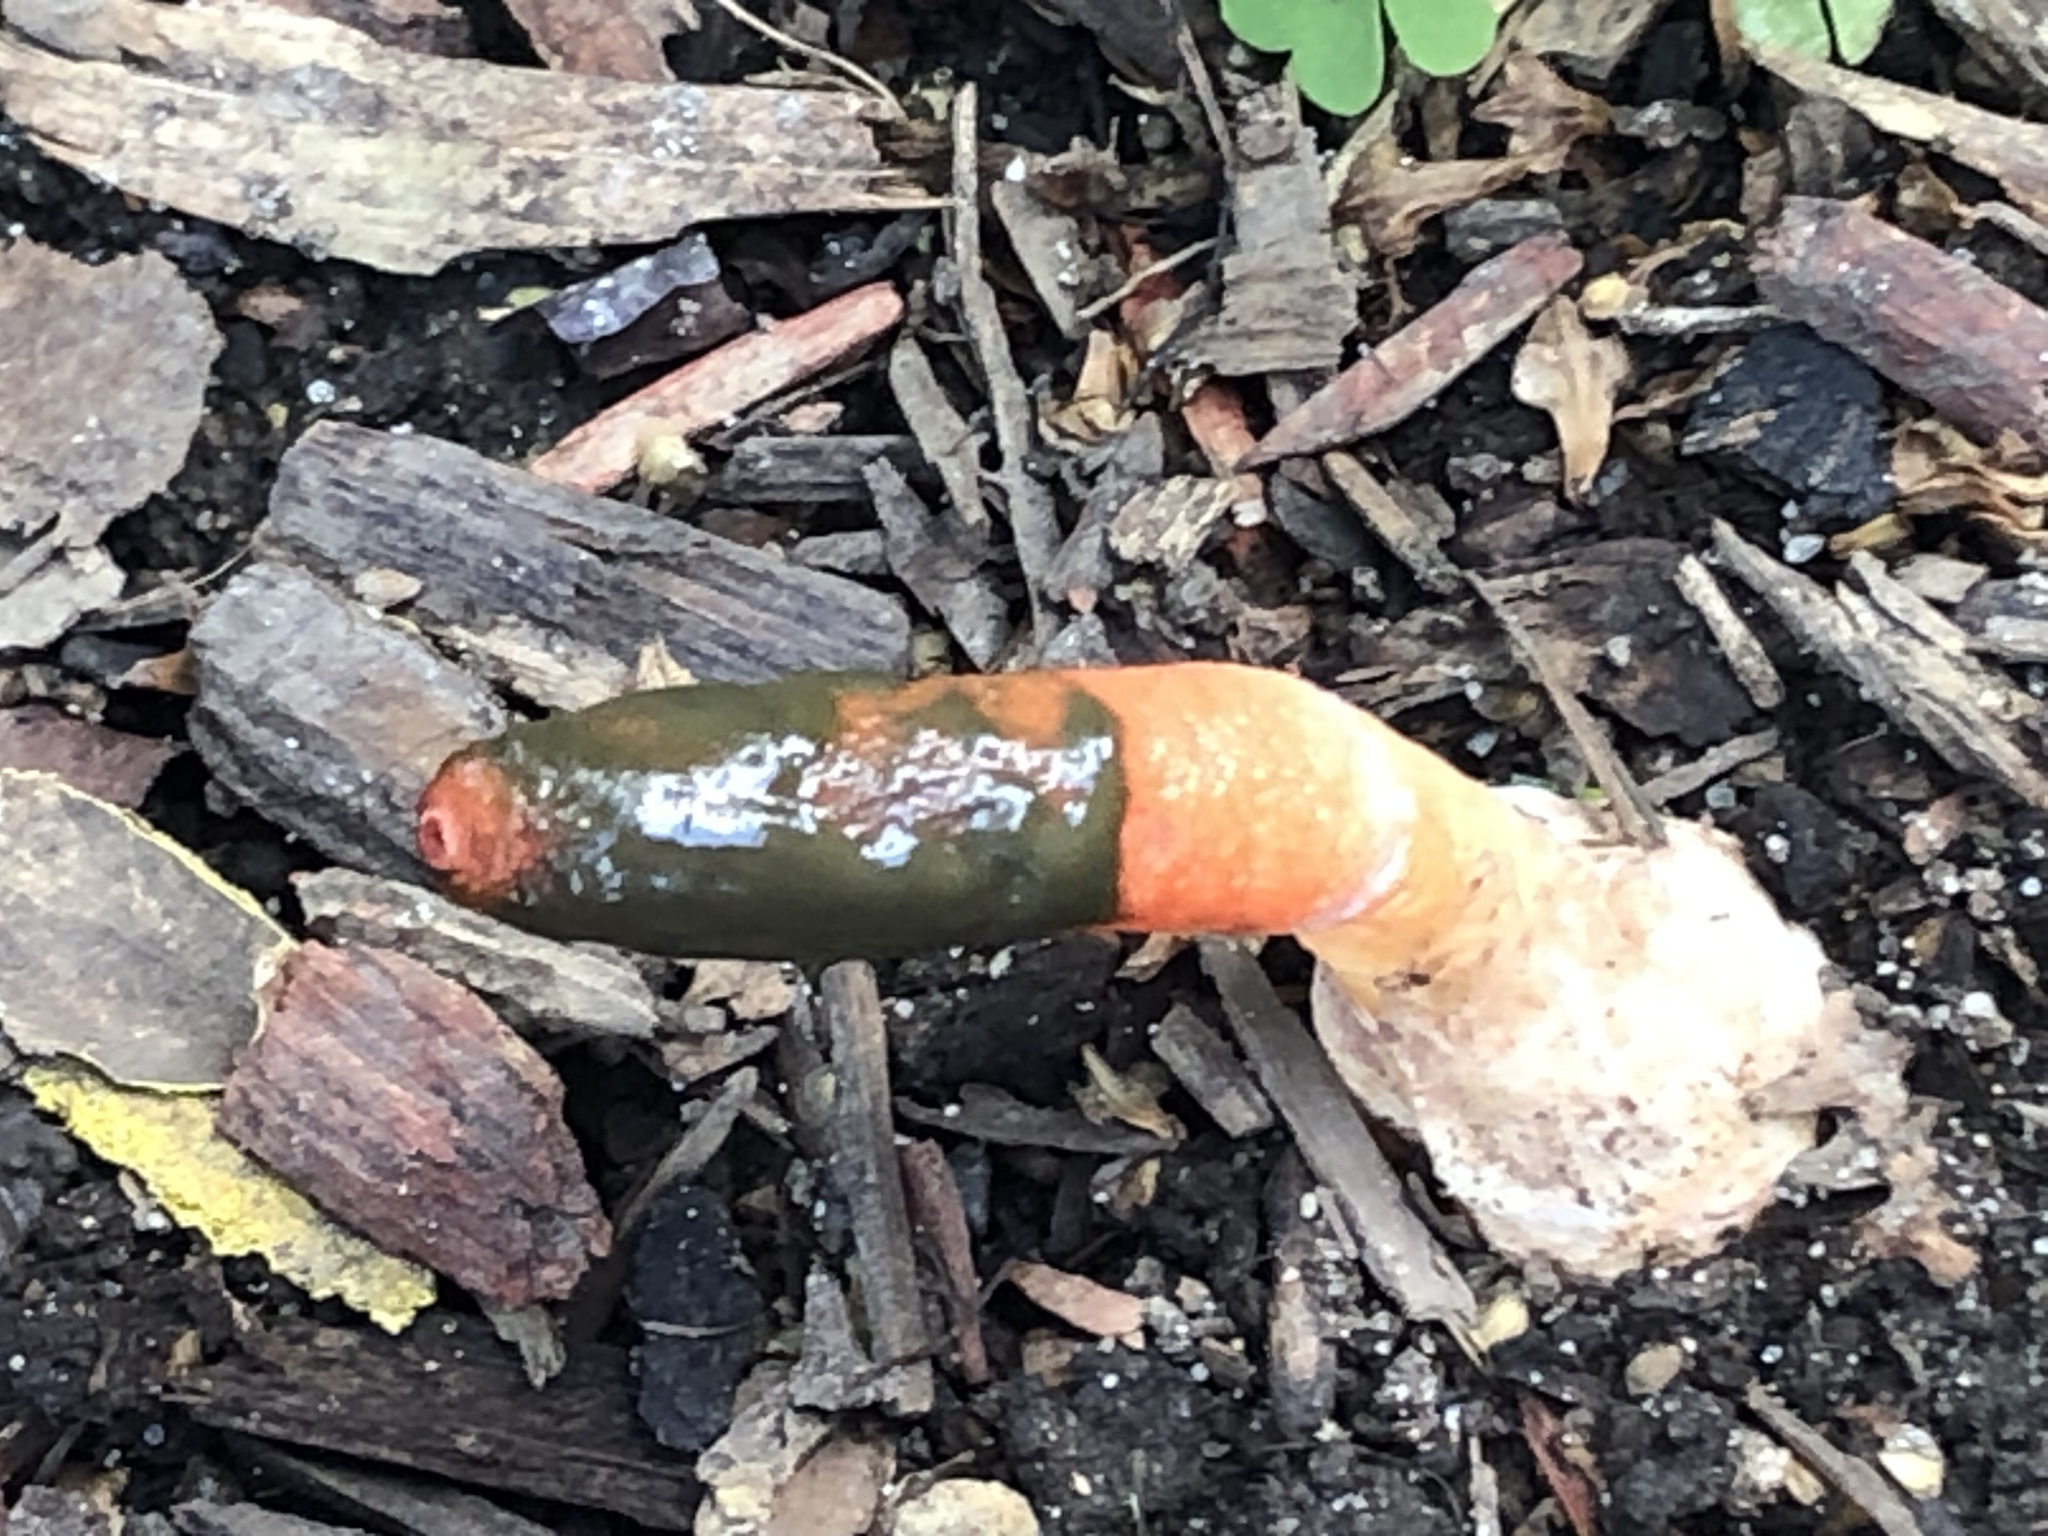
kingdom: Fungi
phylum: Basidiomycota
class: Agaricomycetes
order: Phallales
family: Phallaceae
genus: Mutinus
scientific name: Mutinus elegans
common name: Devil's dipstick
